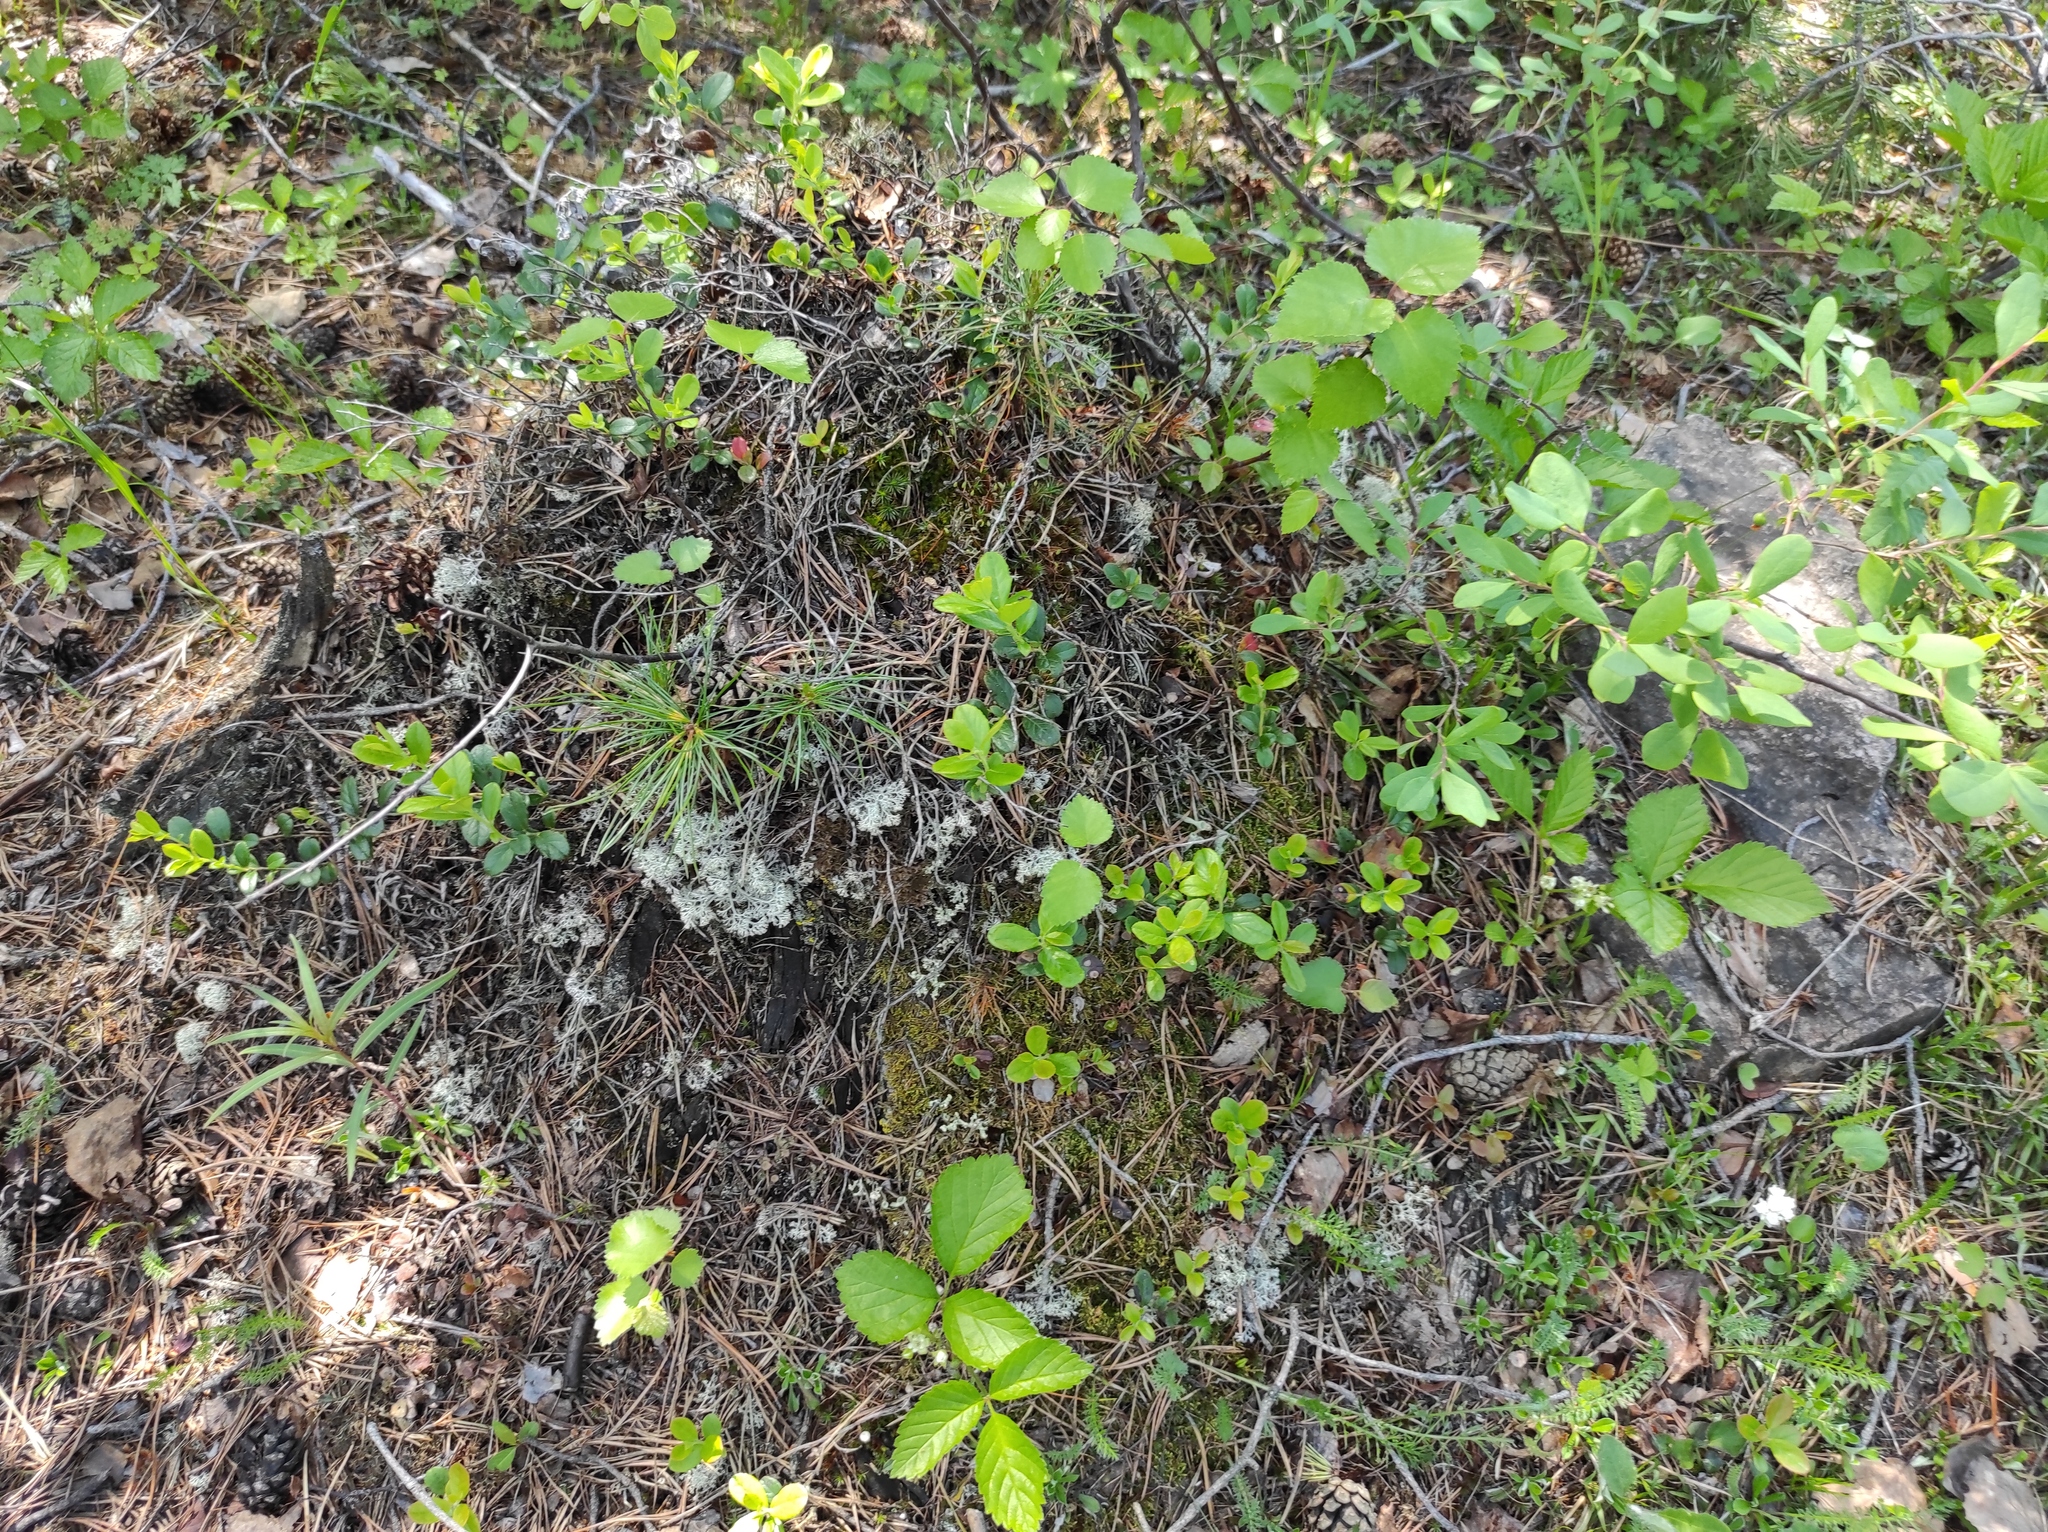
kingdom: Plantae
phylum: Tracheophyta
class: Pinopsida
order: Pinales
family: Pinaceae
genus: Pinus
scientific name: Pinus sylvestris
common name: Scots pine
